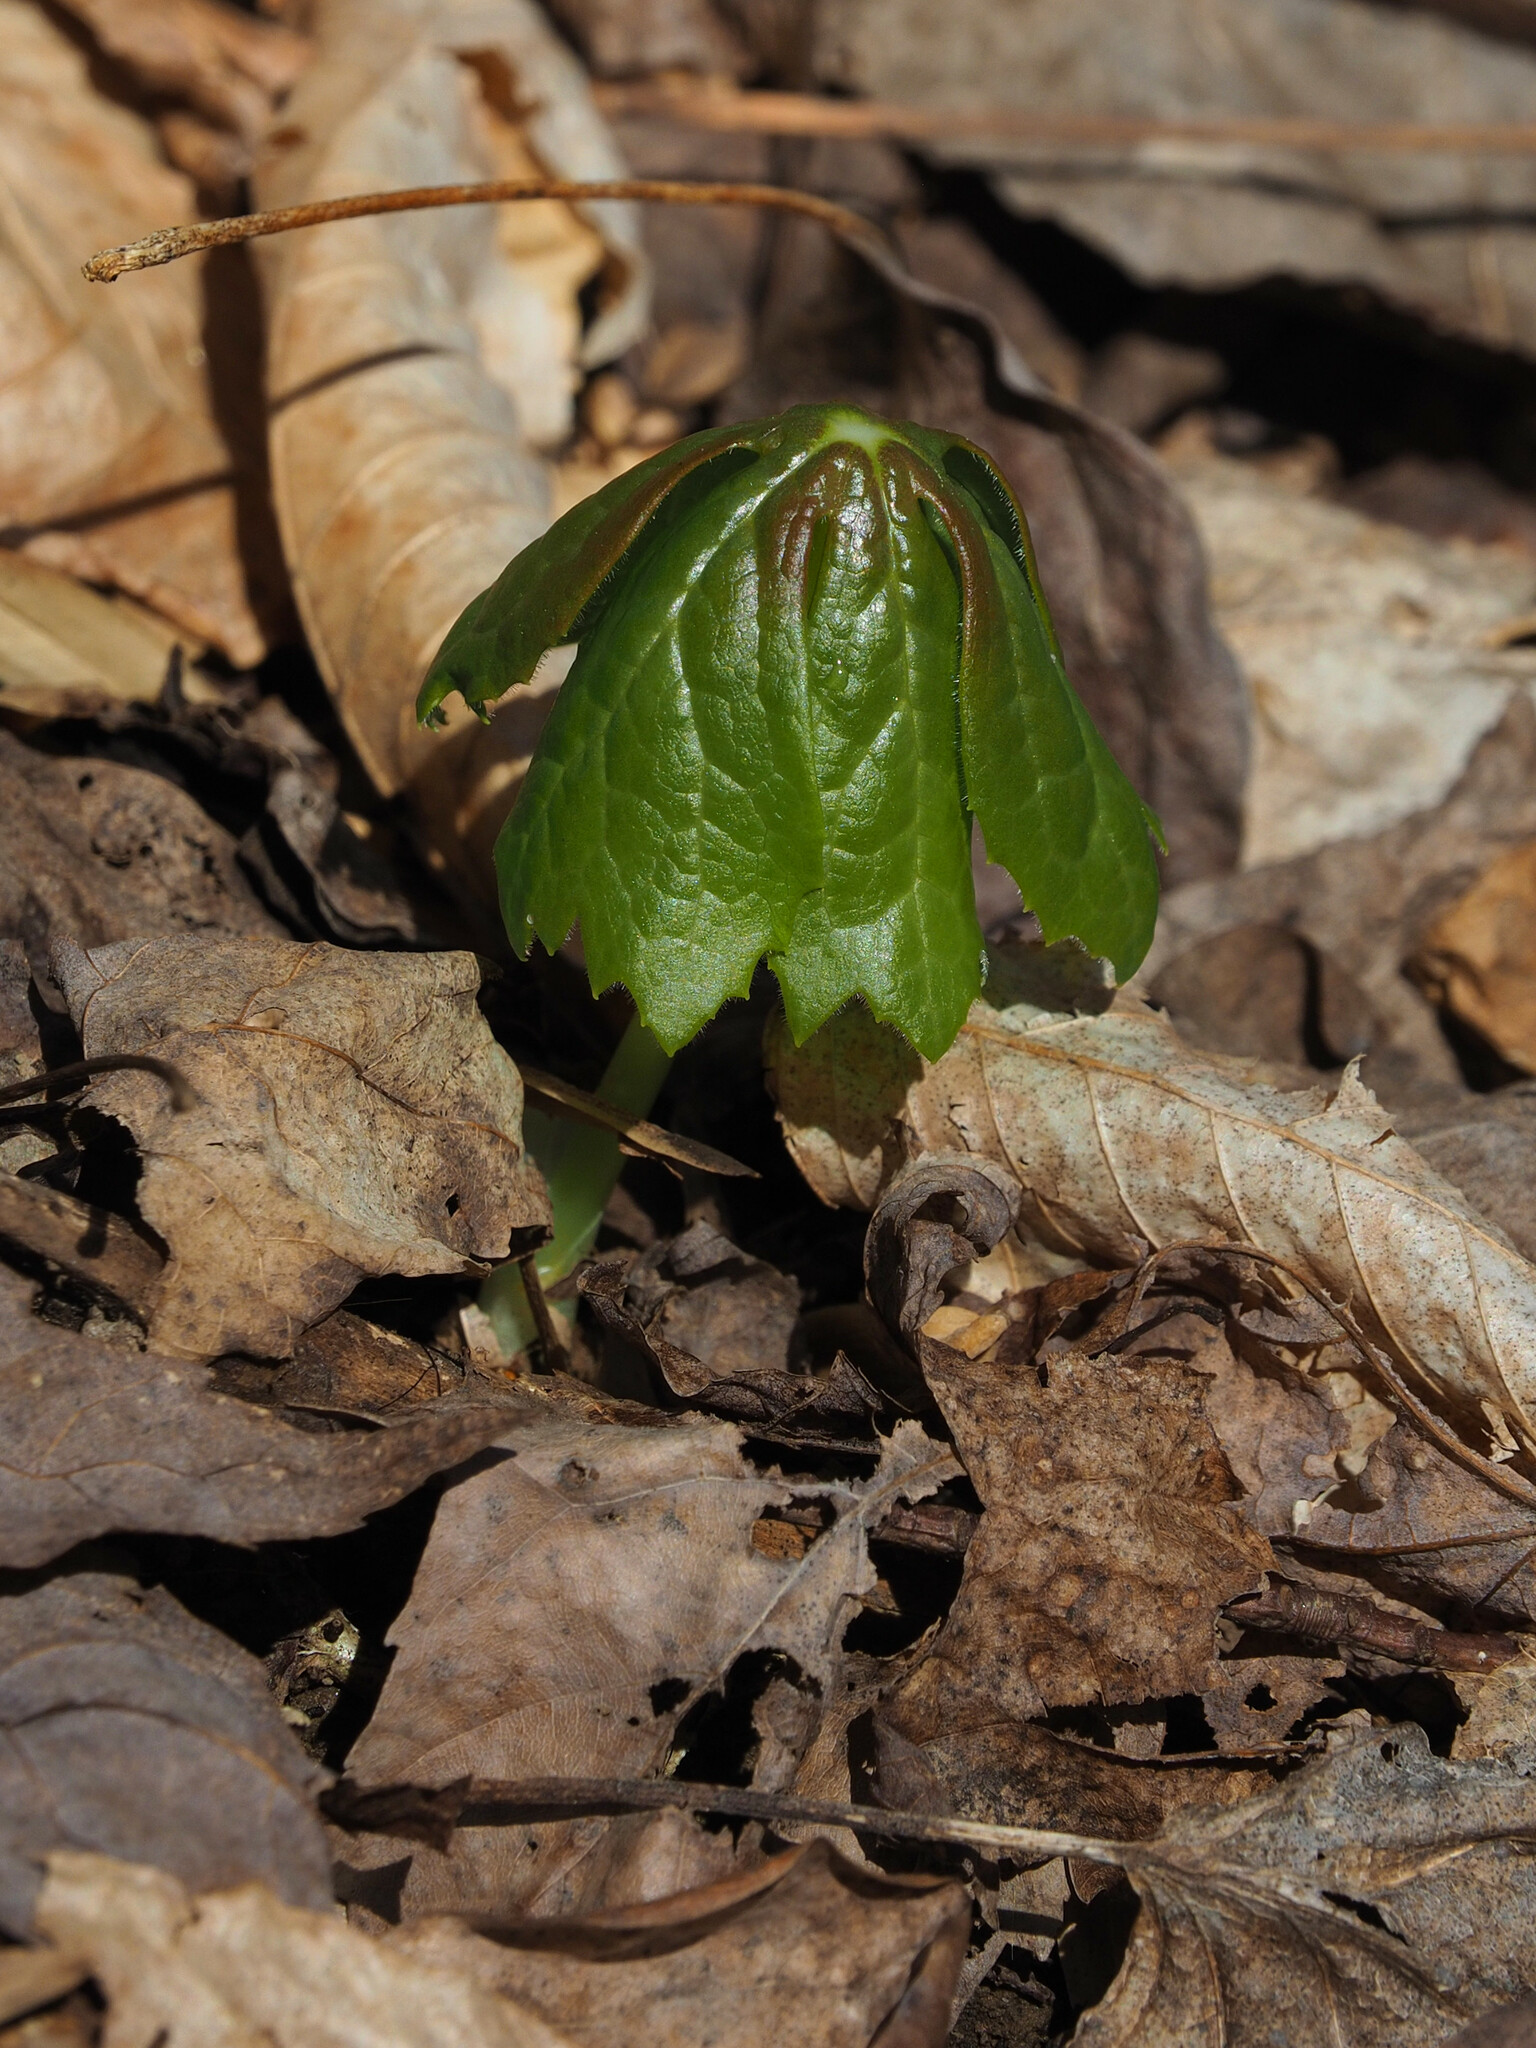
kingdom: Plantae
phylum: Tracheophyta
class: Magnoliopsida
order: Ranunculales
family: Berberidaceae
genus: Podophyllum
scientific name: Podophyllum peltatum
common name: Wild mandrake
